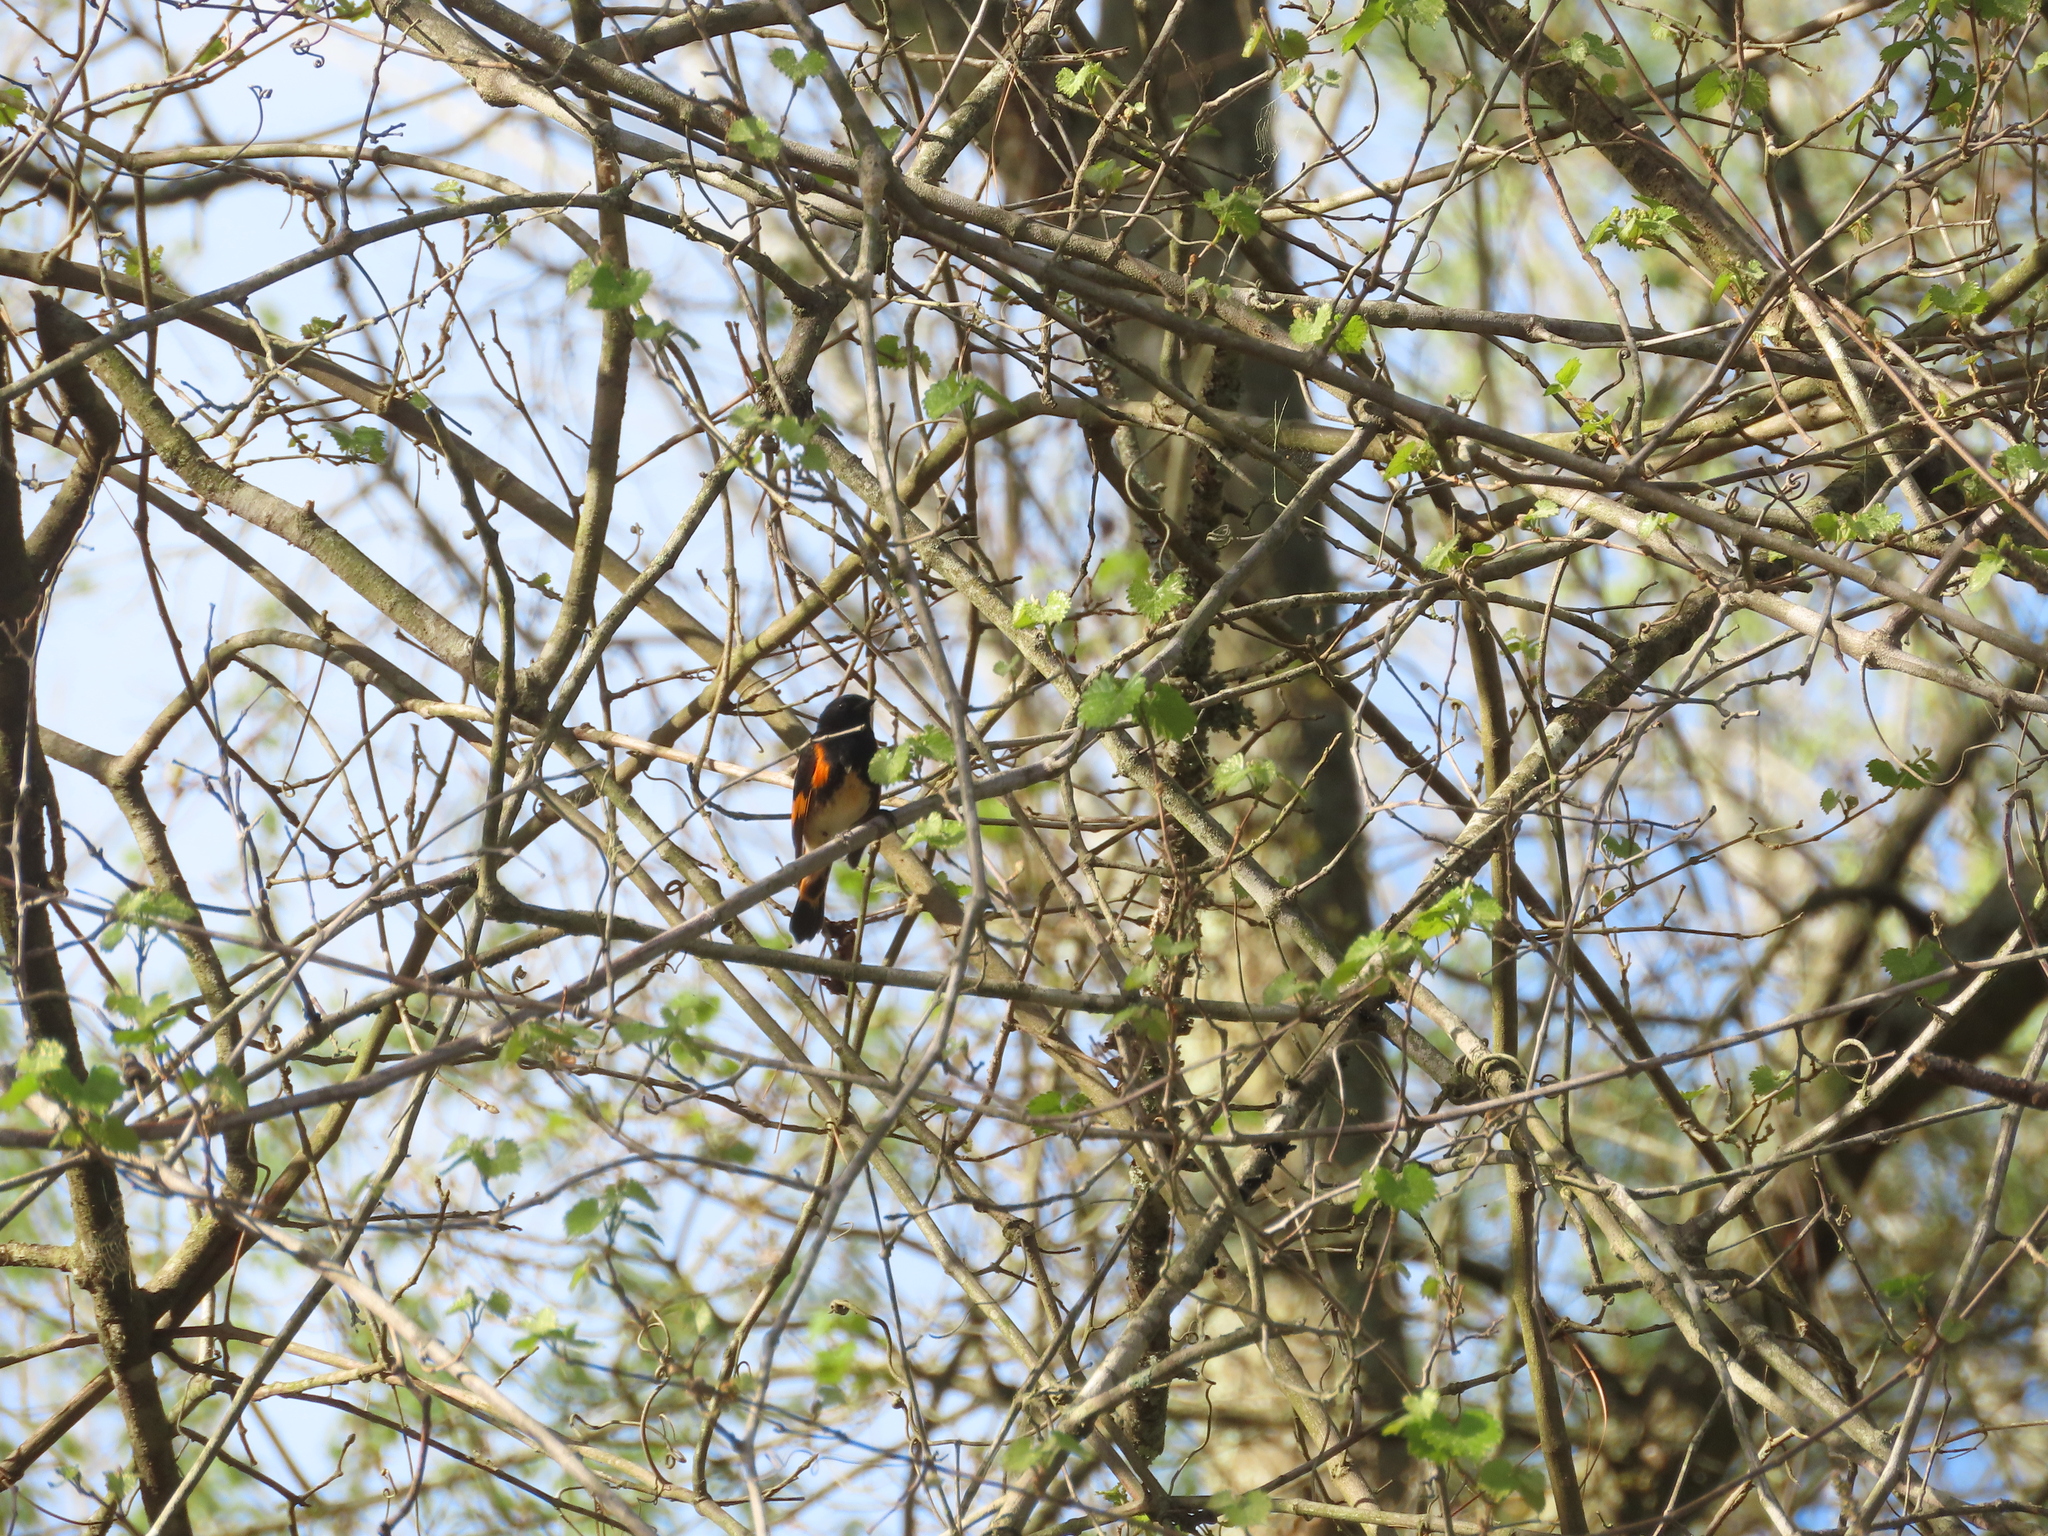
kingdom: Animalia
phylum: Chordata
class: Aves
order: Passeriformes
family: Parulidae
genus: Setophaga
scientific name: Setophaga ruticilla
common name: American redstart
